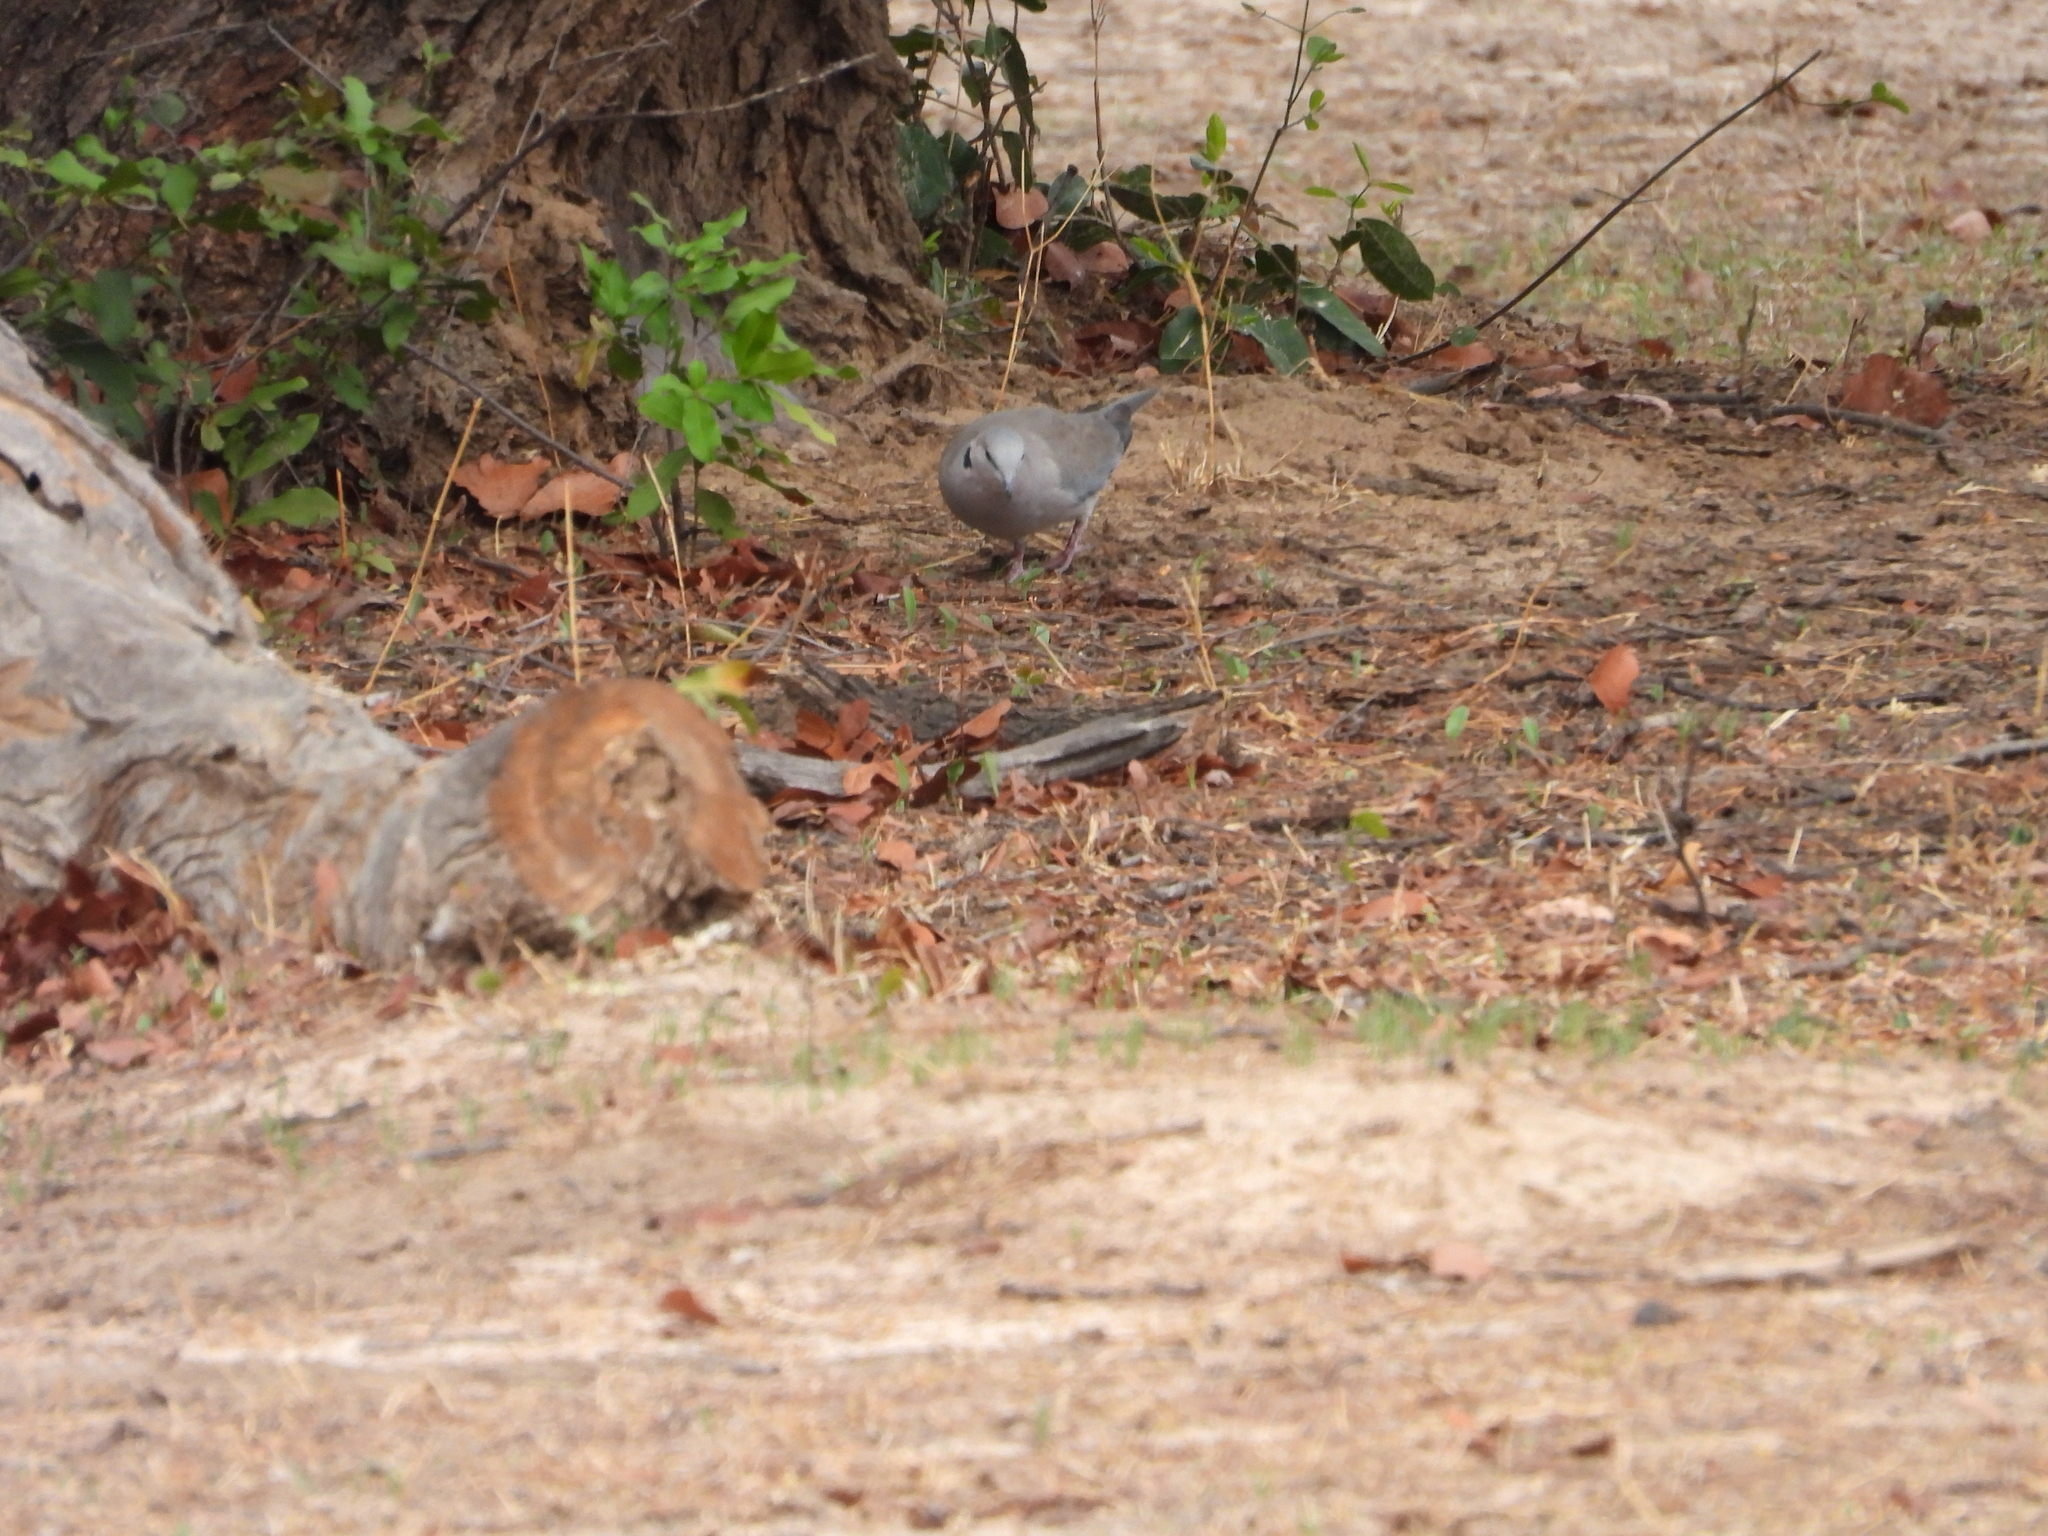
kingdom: Animalia
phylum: Chordata
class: Aves
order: Columbiformes
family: Columbidae
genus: Streptopelia
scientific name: Streptopelia capicola
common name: Ring-necked dove
